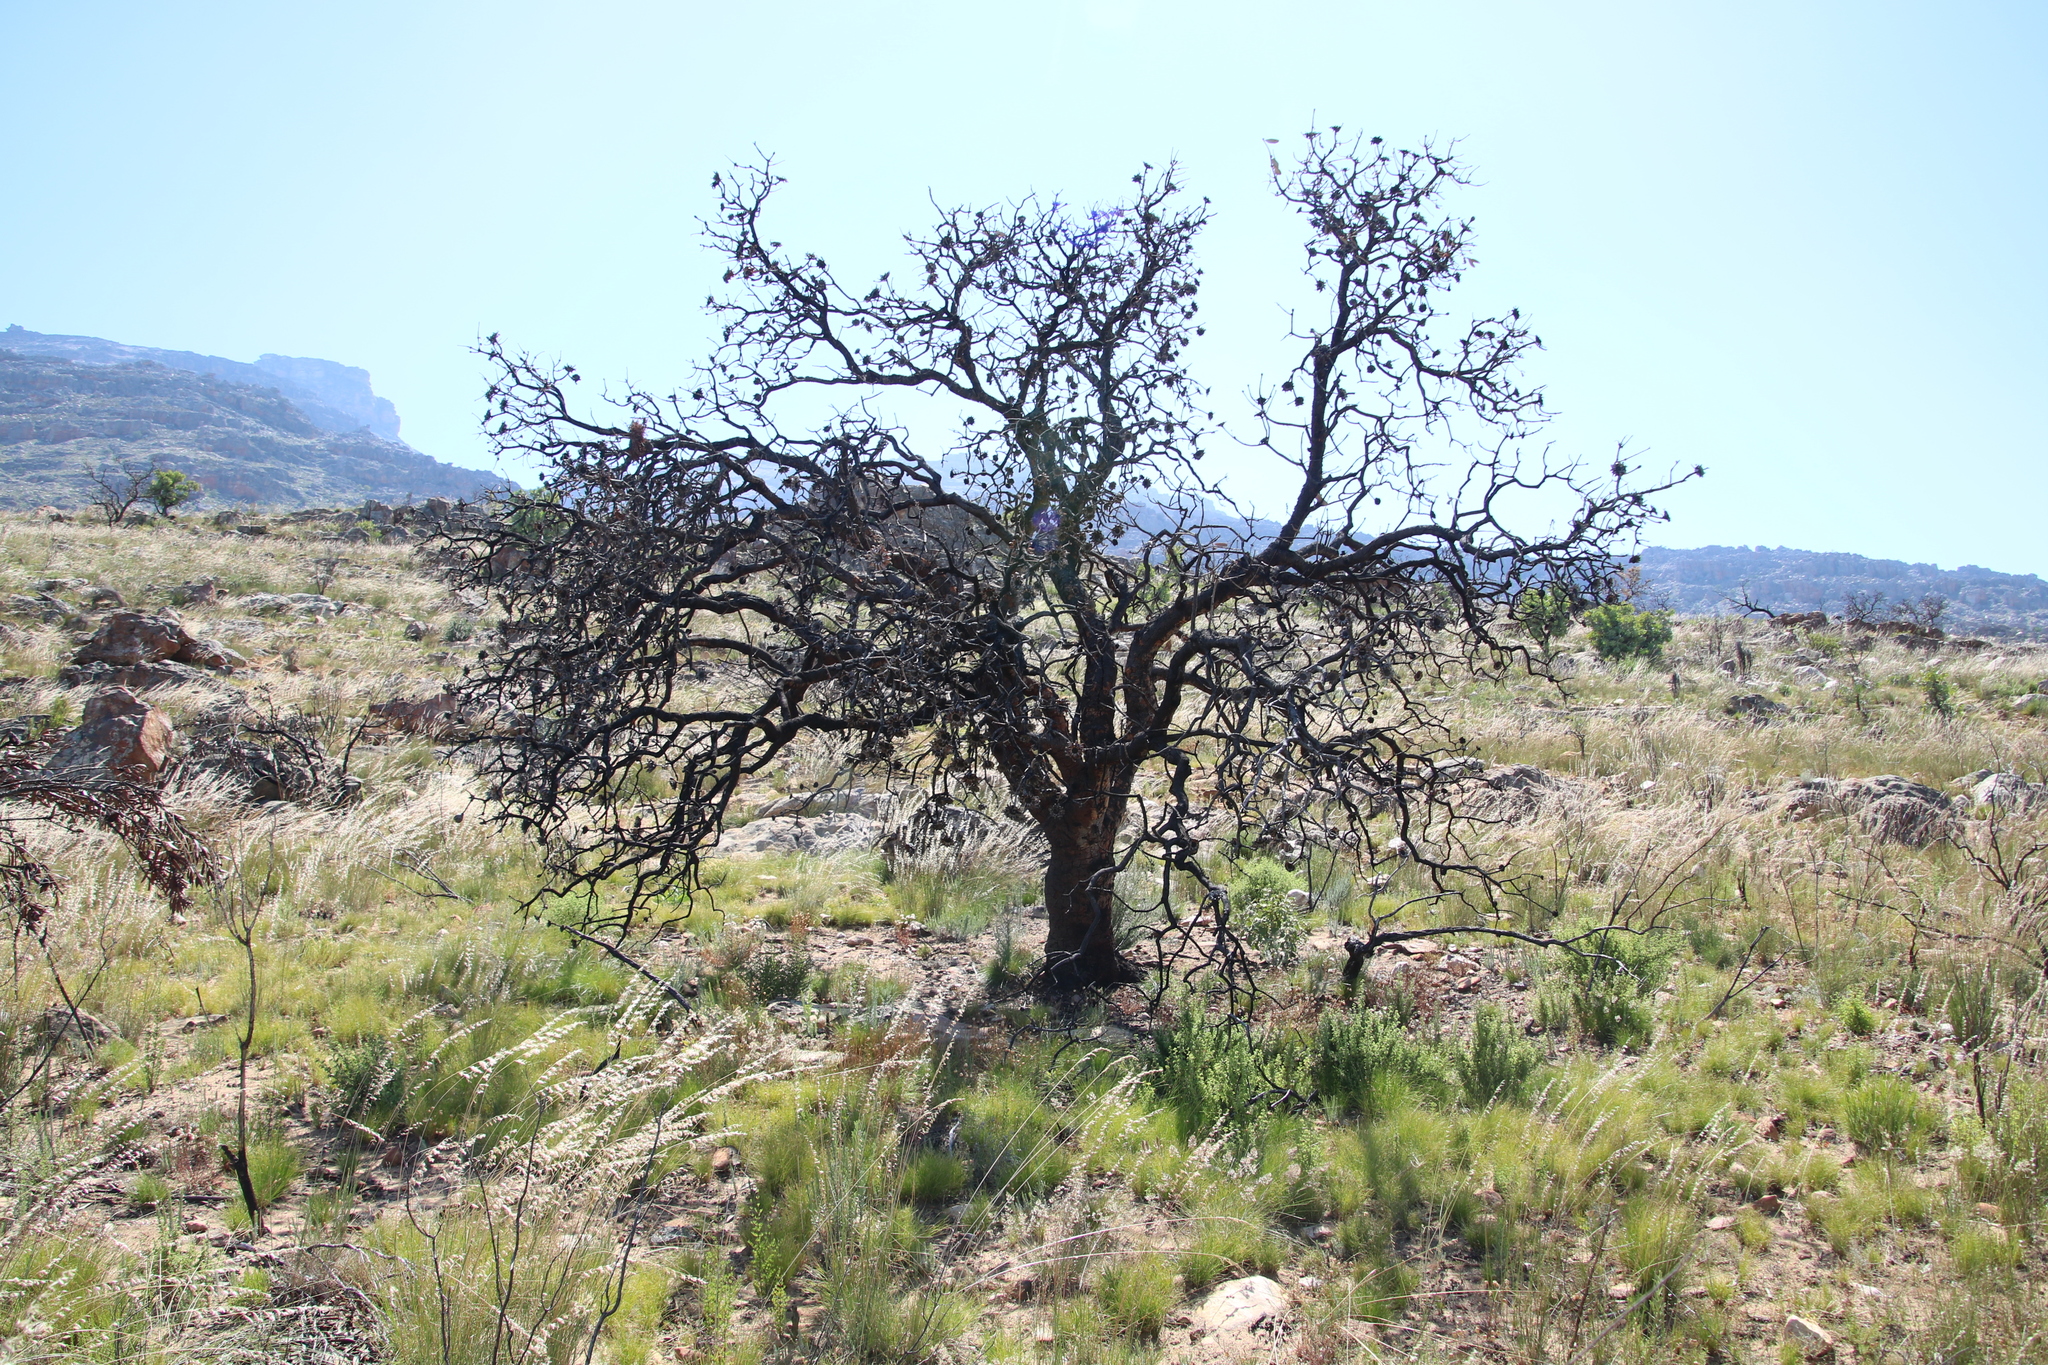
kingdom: Plantae
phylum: Tracheophyta
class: Magnoliopsida
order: Proteales
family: Proteaceae
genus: Protea
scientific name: Protea nitida
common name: Tree protea
